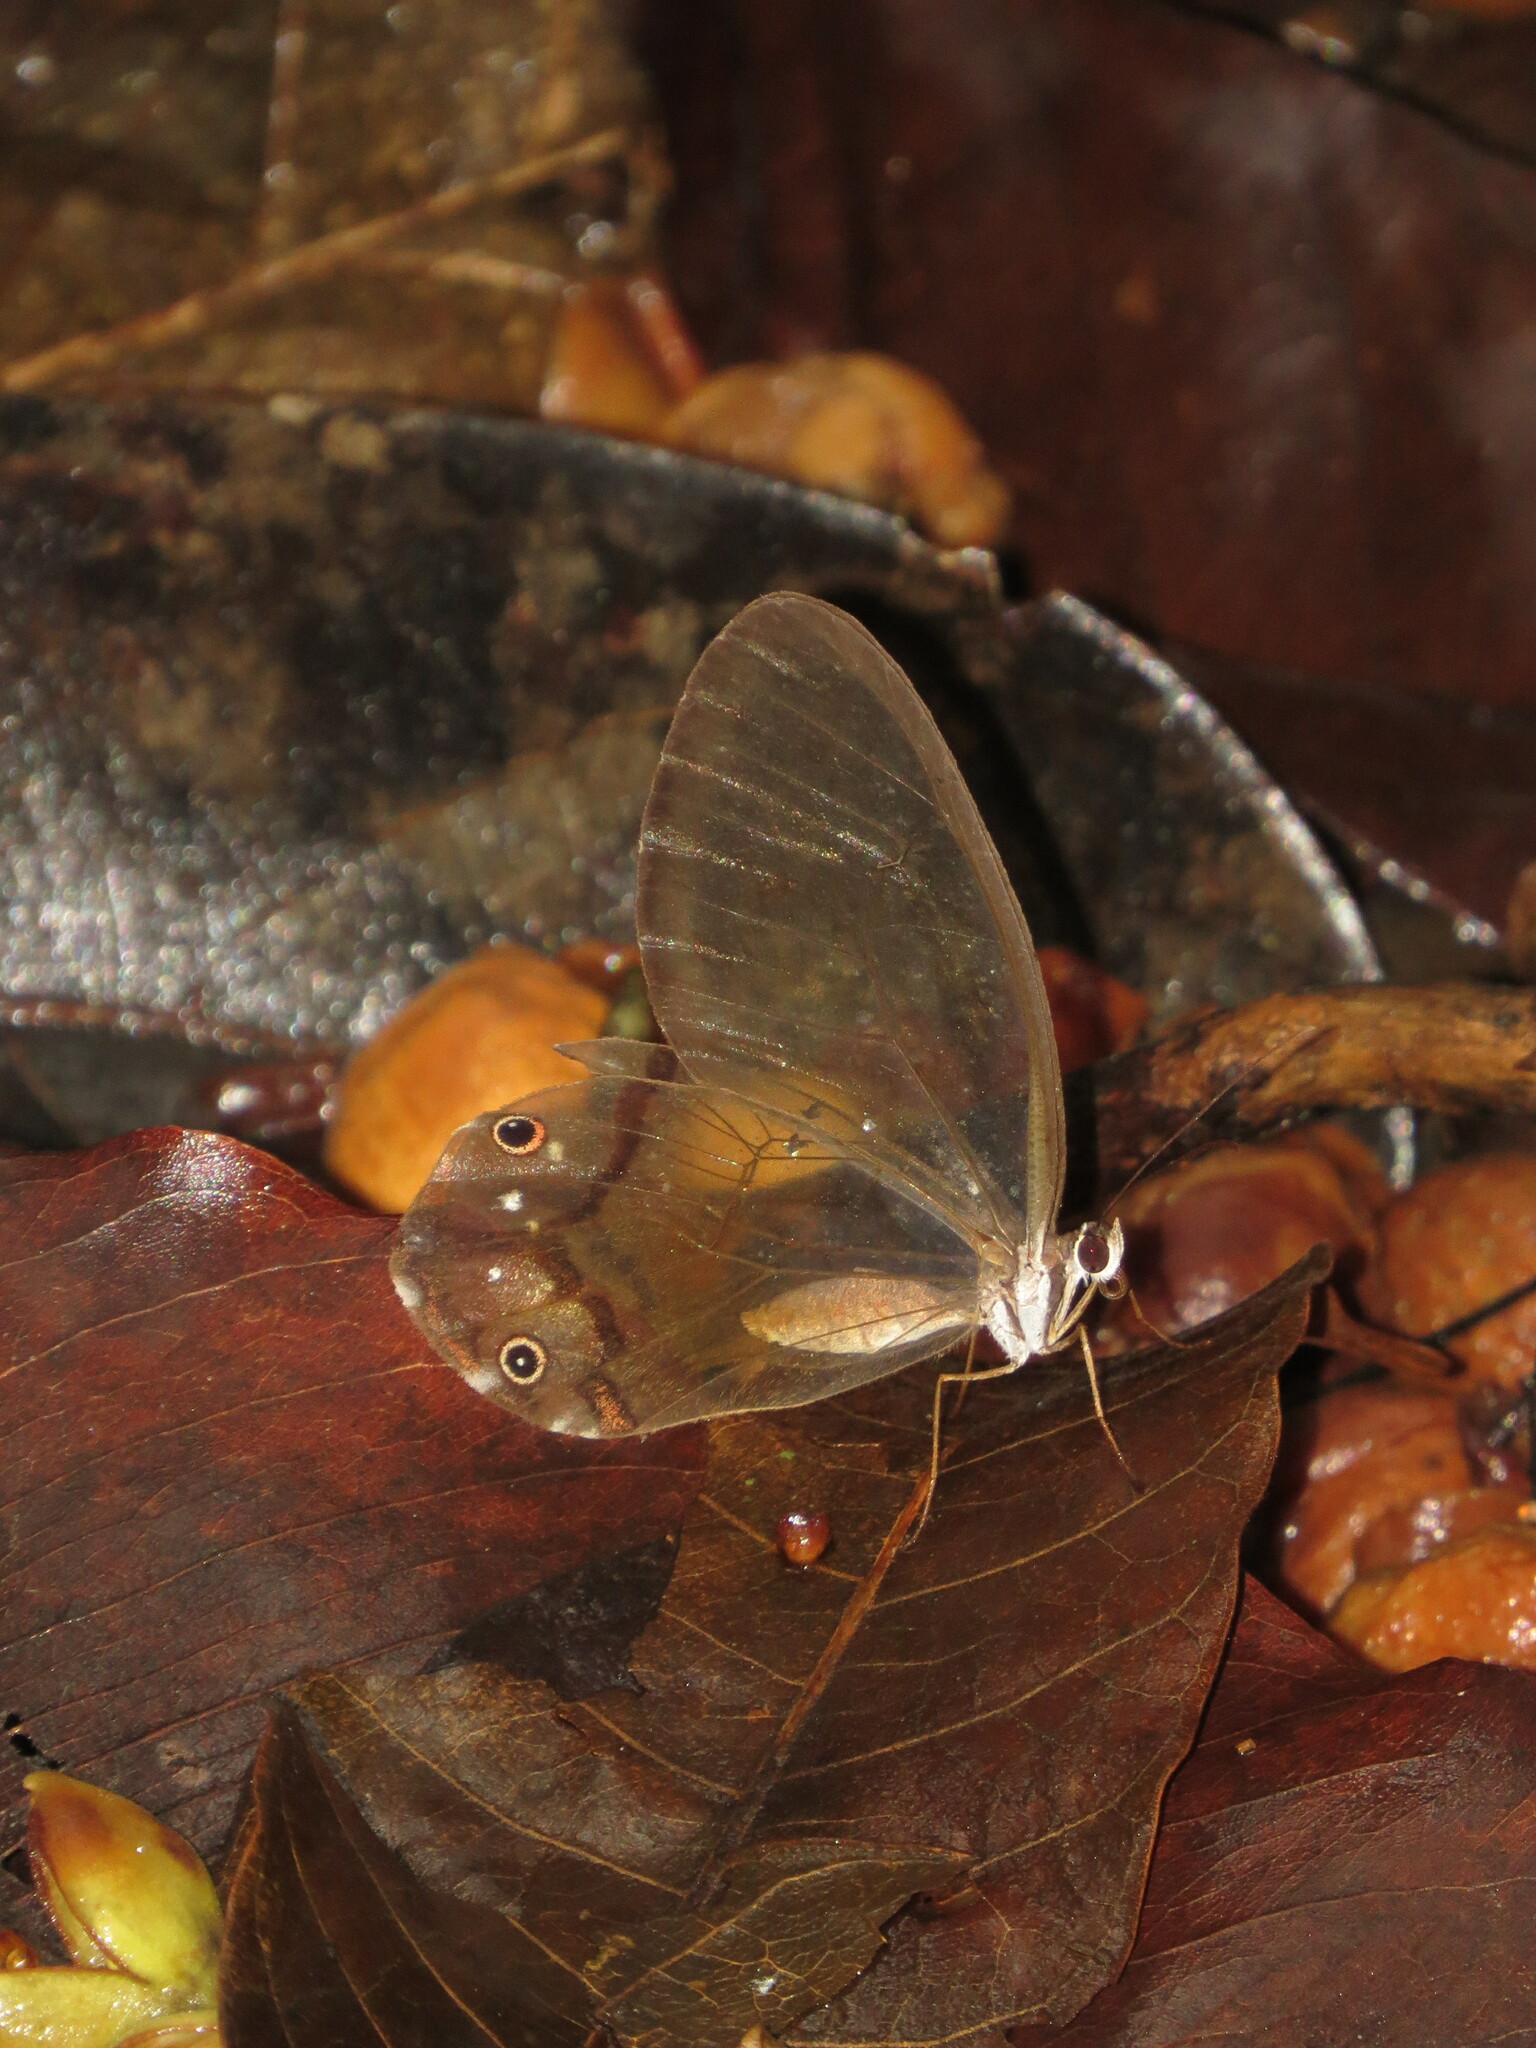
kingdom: Animalia
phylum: Arthropoda
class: Insecta
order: Lepidoptera
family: Nymphalidae
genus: Haetera
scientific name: Haetera piera
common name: Amber phantom
